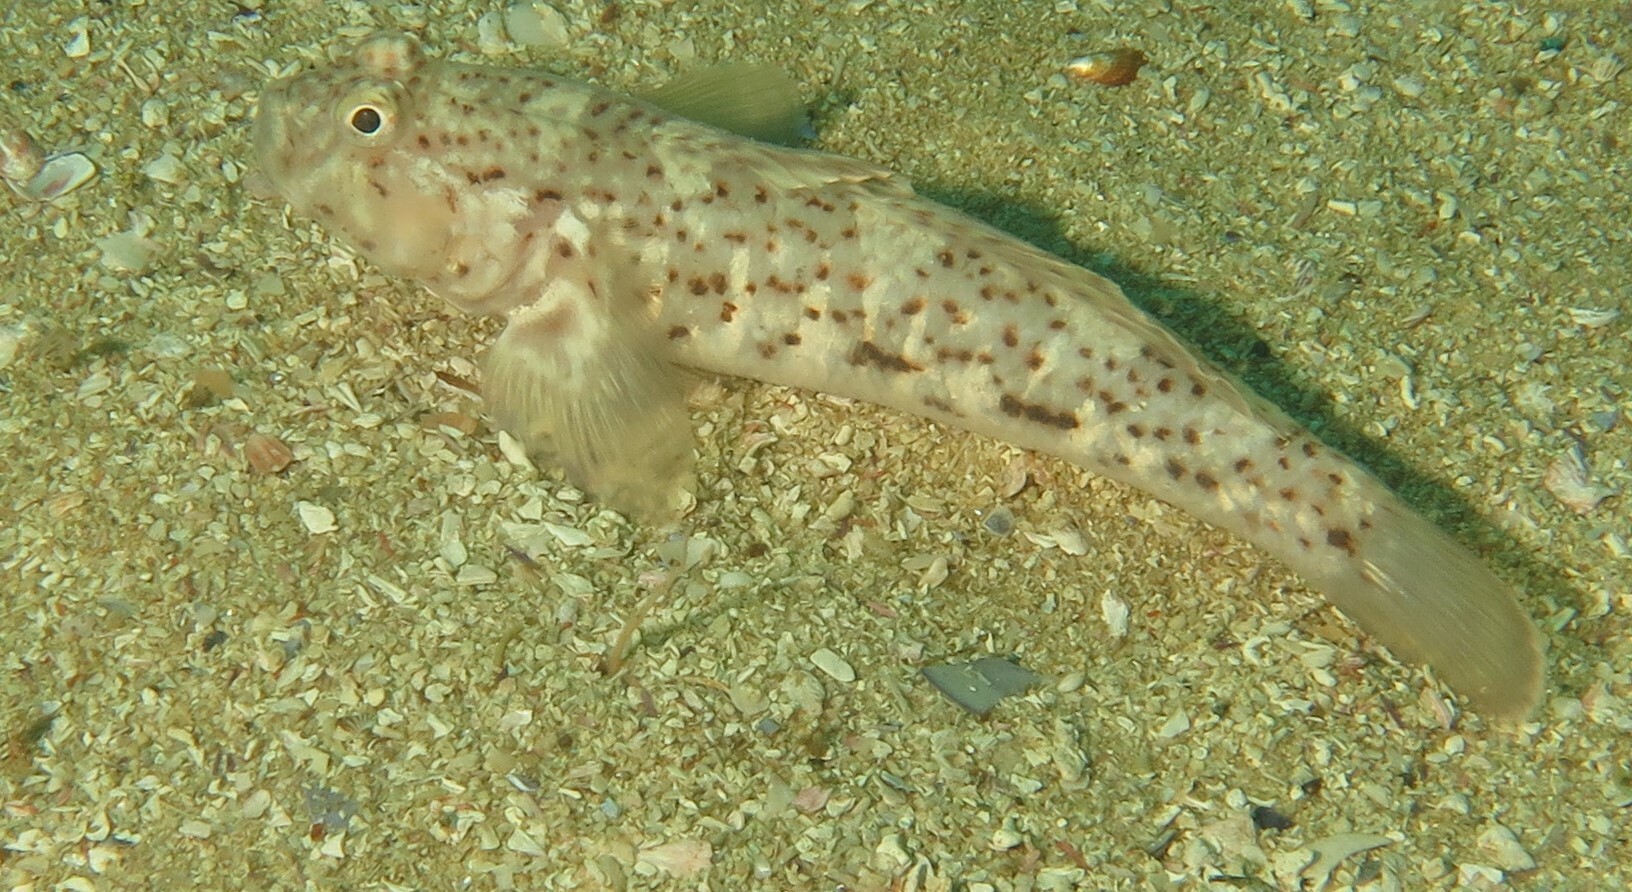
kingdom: Animalia
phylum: Chordata
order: Perciformes
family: Gobiidae
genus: Caffrogobius
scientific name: Caffrogobius saldanha
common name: Commafin goby
